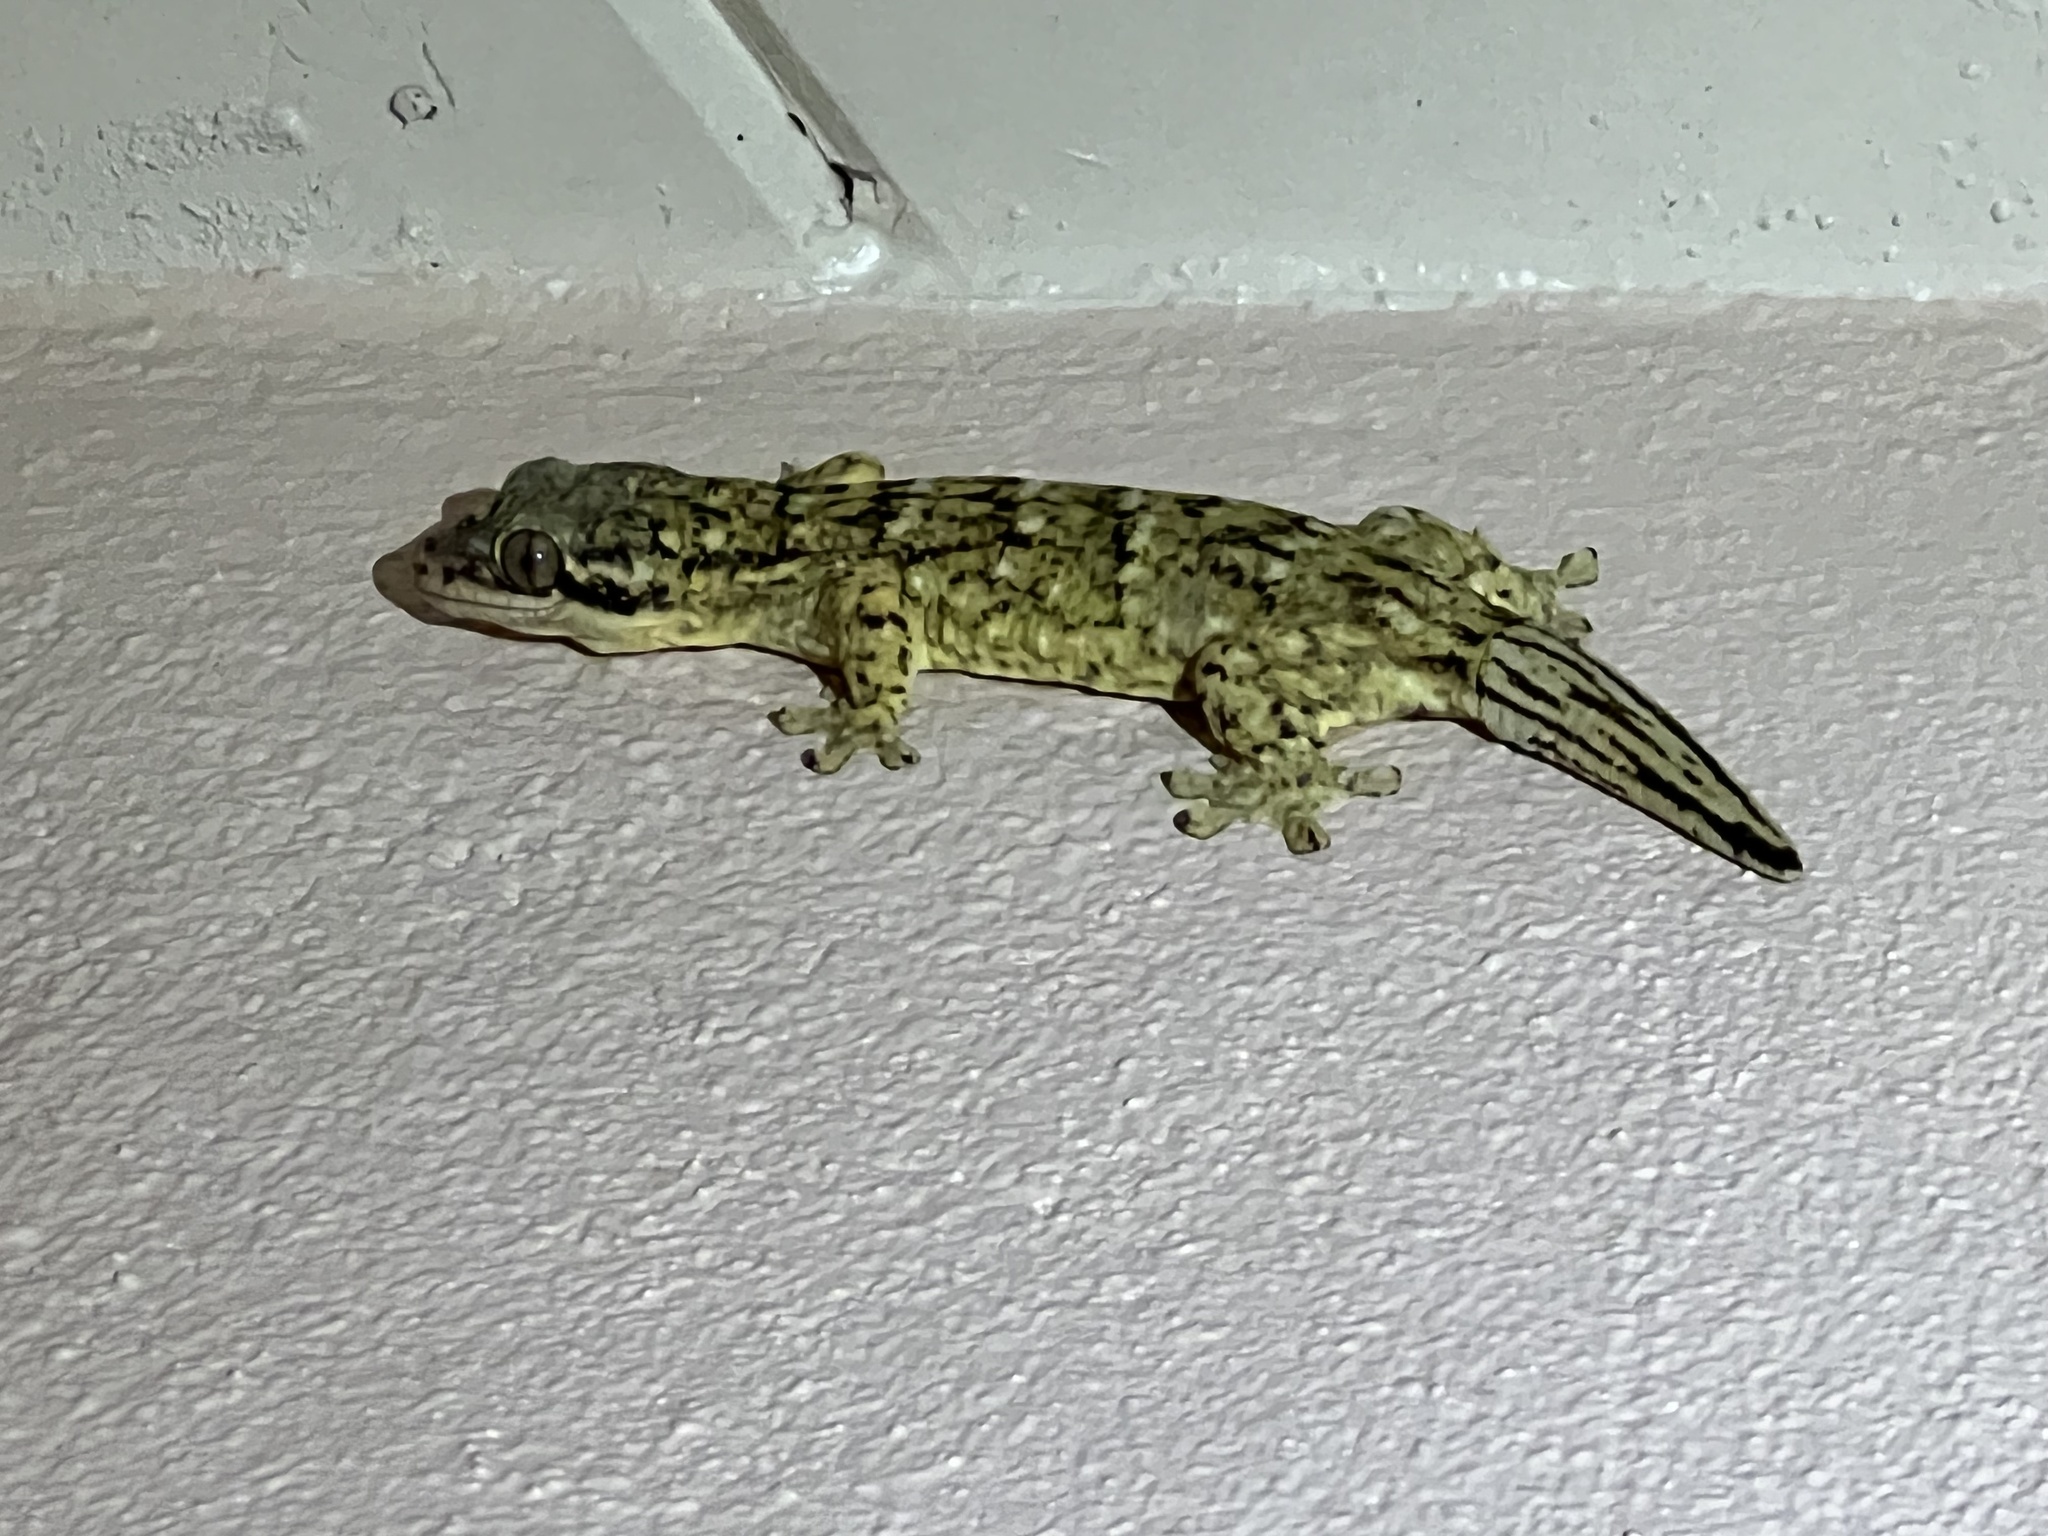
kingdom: Animalia
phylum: Chordata
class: Squamata
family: Phyllodactylidae
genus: Thecadactylus
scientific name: Thecadactylus rapicauda
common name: Turnip-tailed gecko
